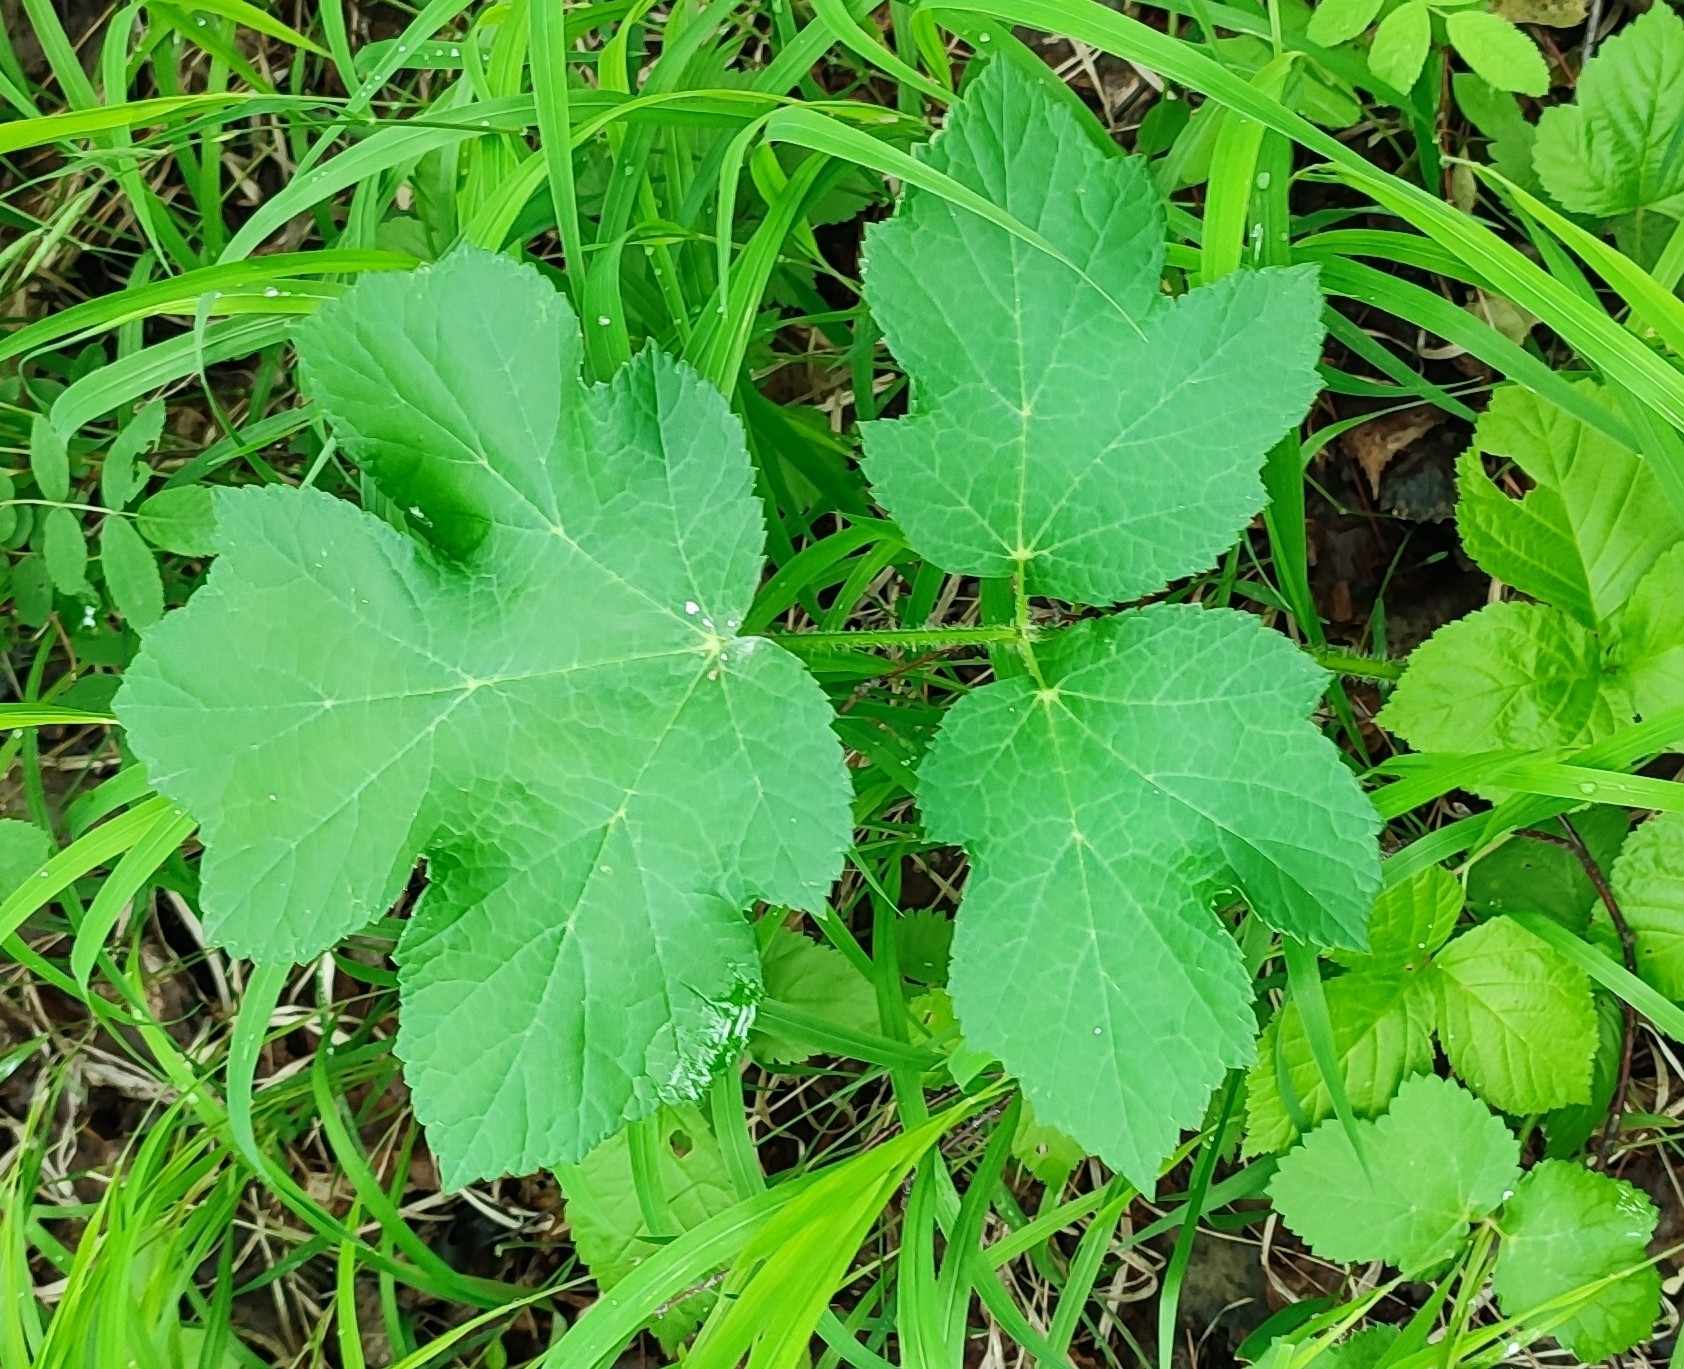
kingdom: Plantae
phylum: Tracheophyta
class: Magnoliopsida
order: Apiales
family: Apiaceae
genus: Heracleum
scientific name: Heracleum sphondylium
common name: Hogweed
